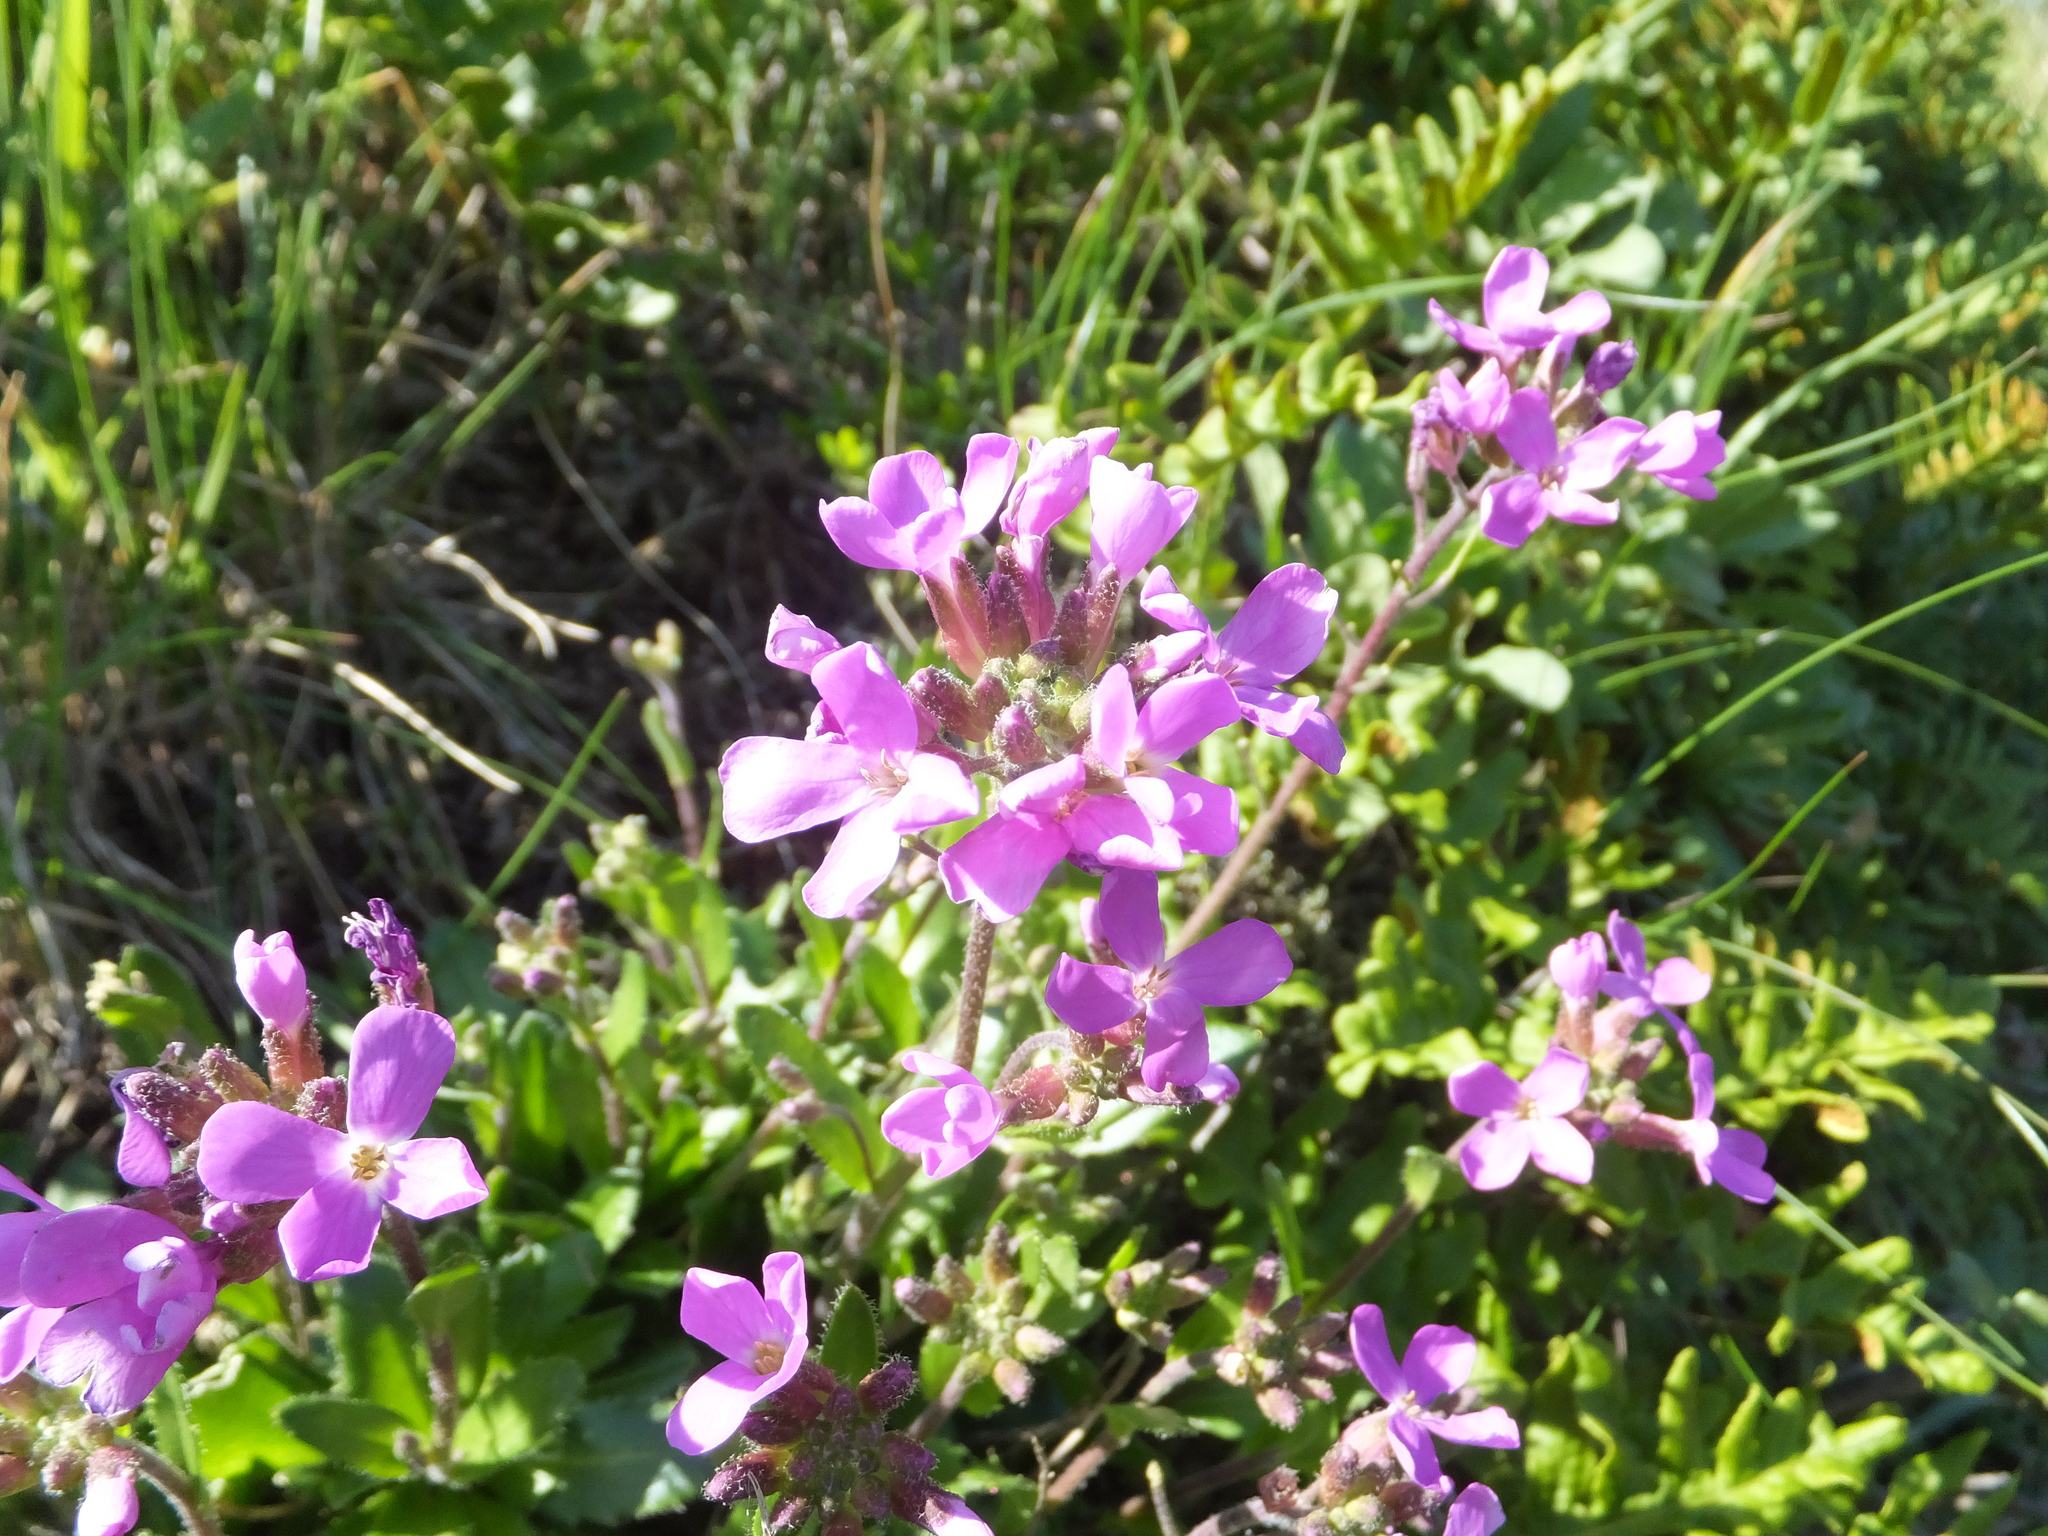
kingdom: Plantae
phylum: Tracheophyta
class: Magnoliopsida
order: Brassicales
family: Brassicaceae
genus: Arabis
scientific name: Arabis blepharophylla
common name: Rose rockcress
